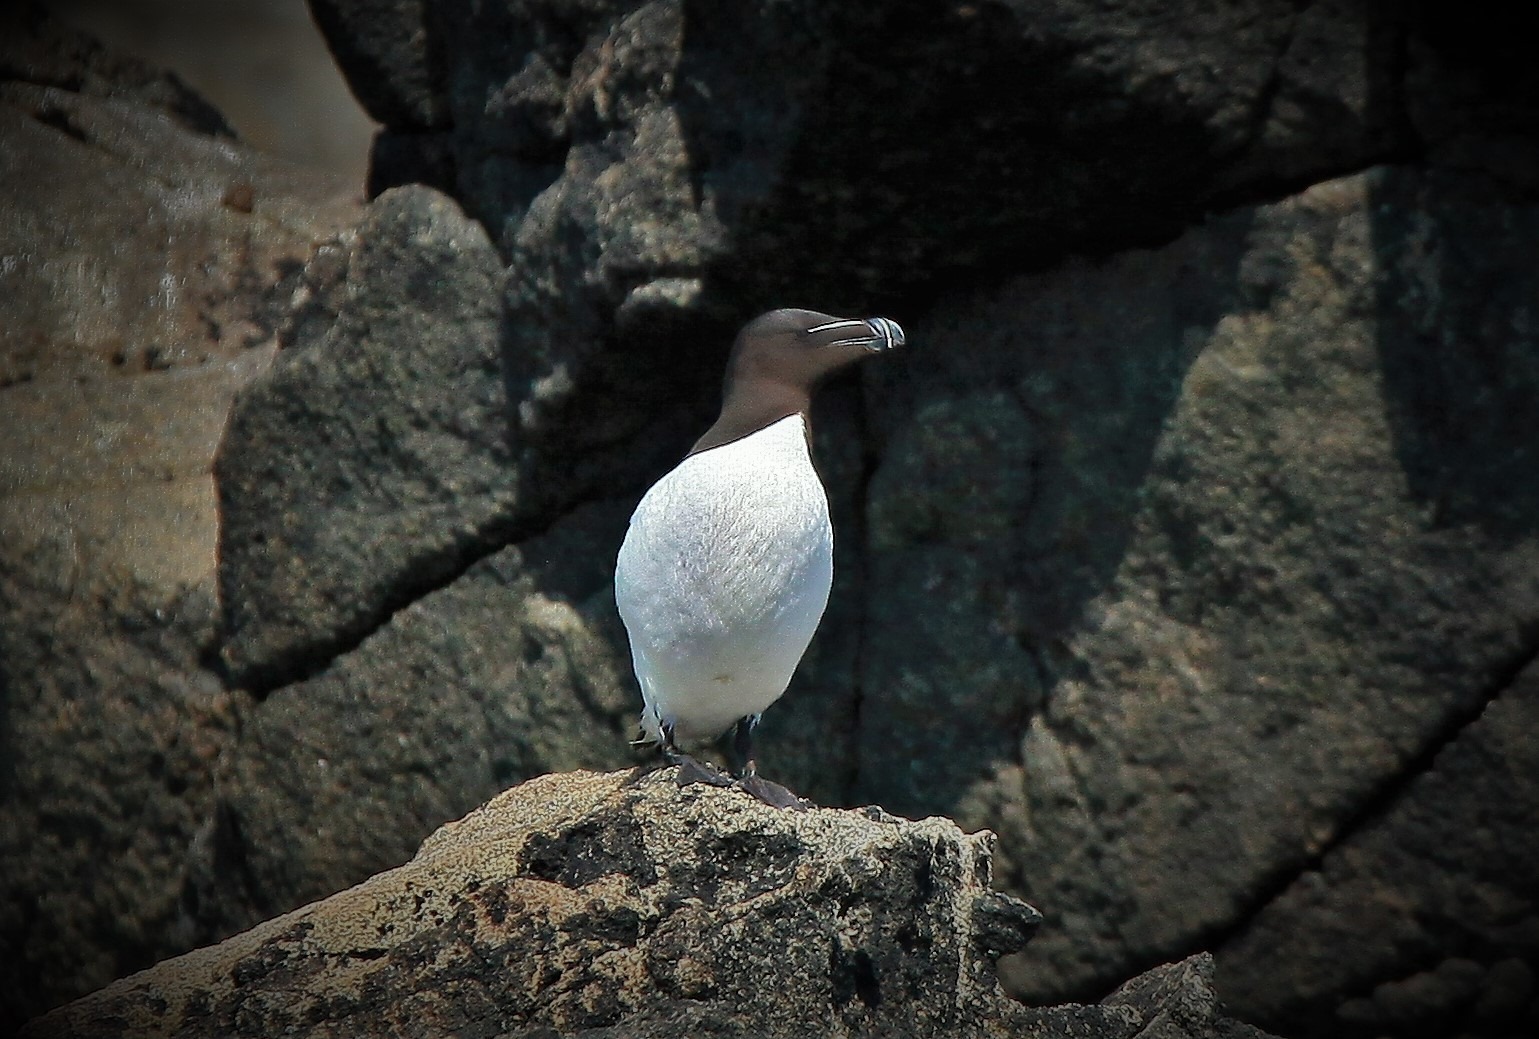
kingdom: Animalia
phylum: Chordata
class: Aves
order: Charadriiformes
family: Alcidae
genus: Alca
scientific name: Alca torda
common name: Razorbill
